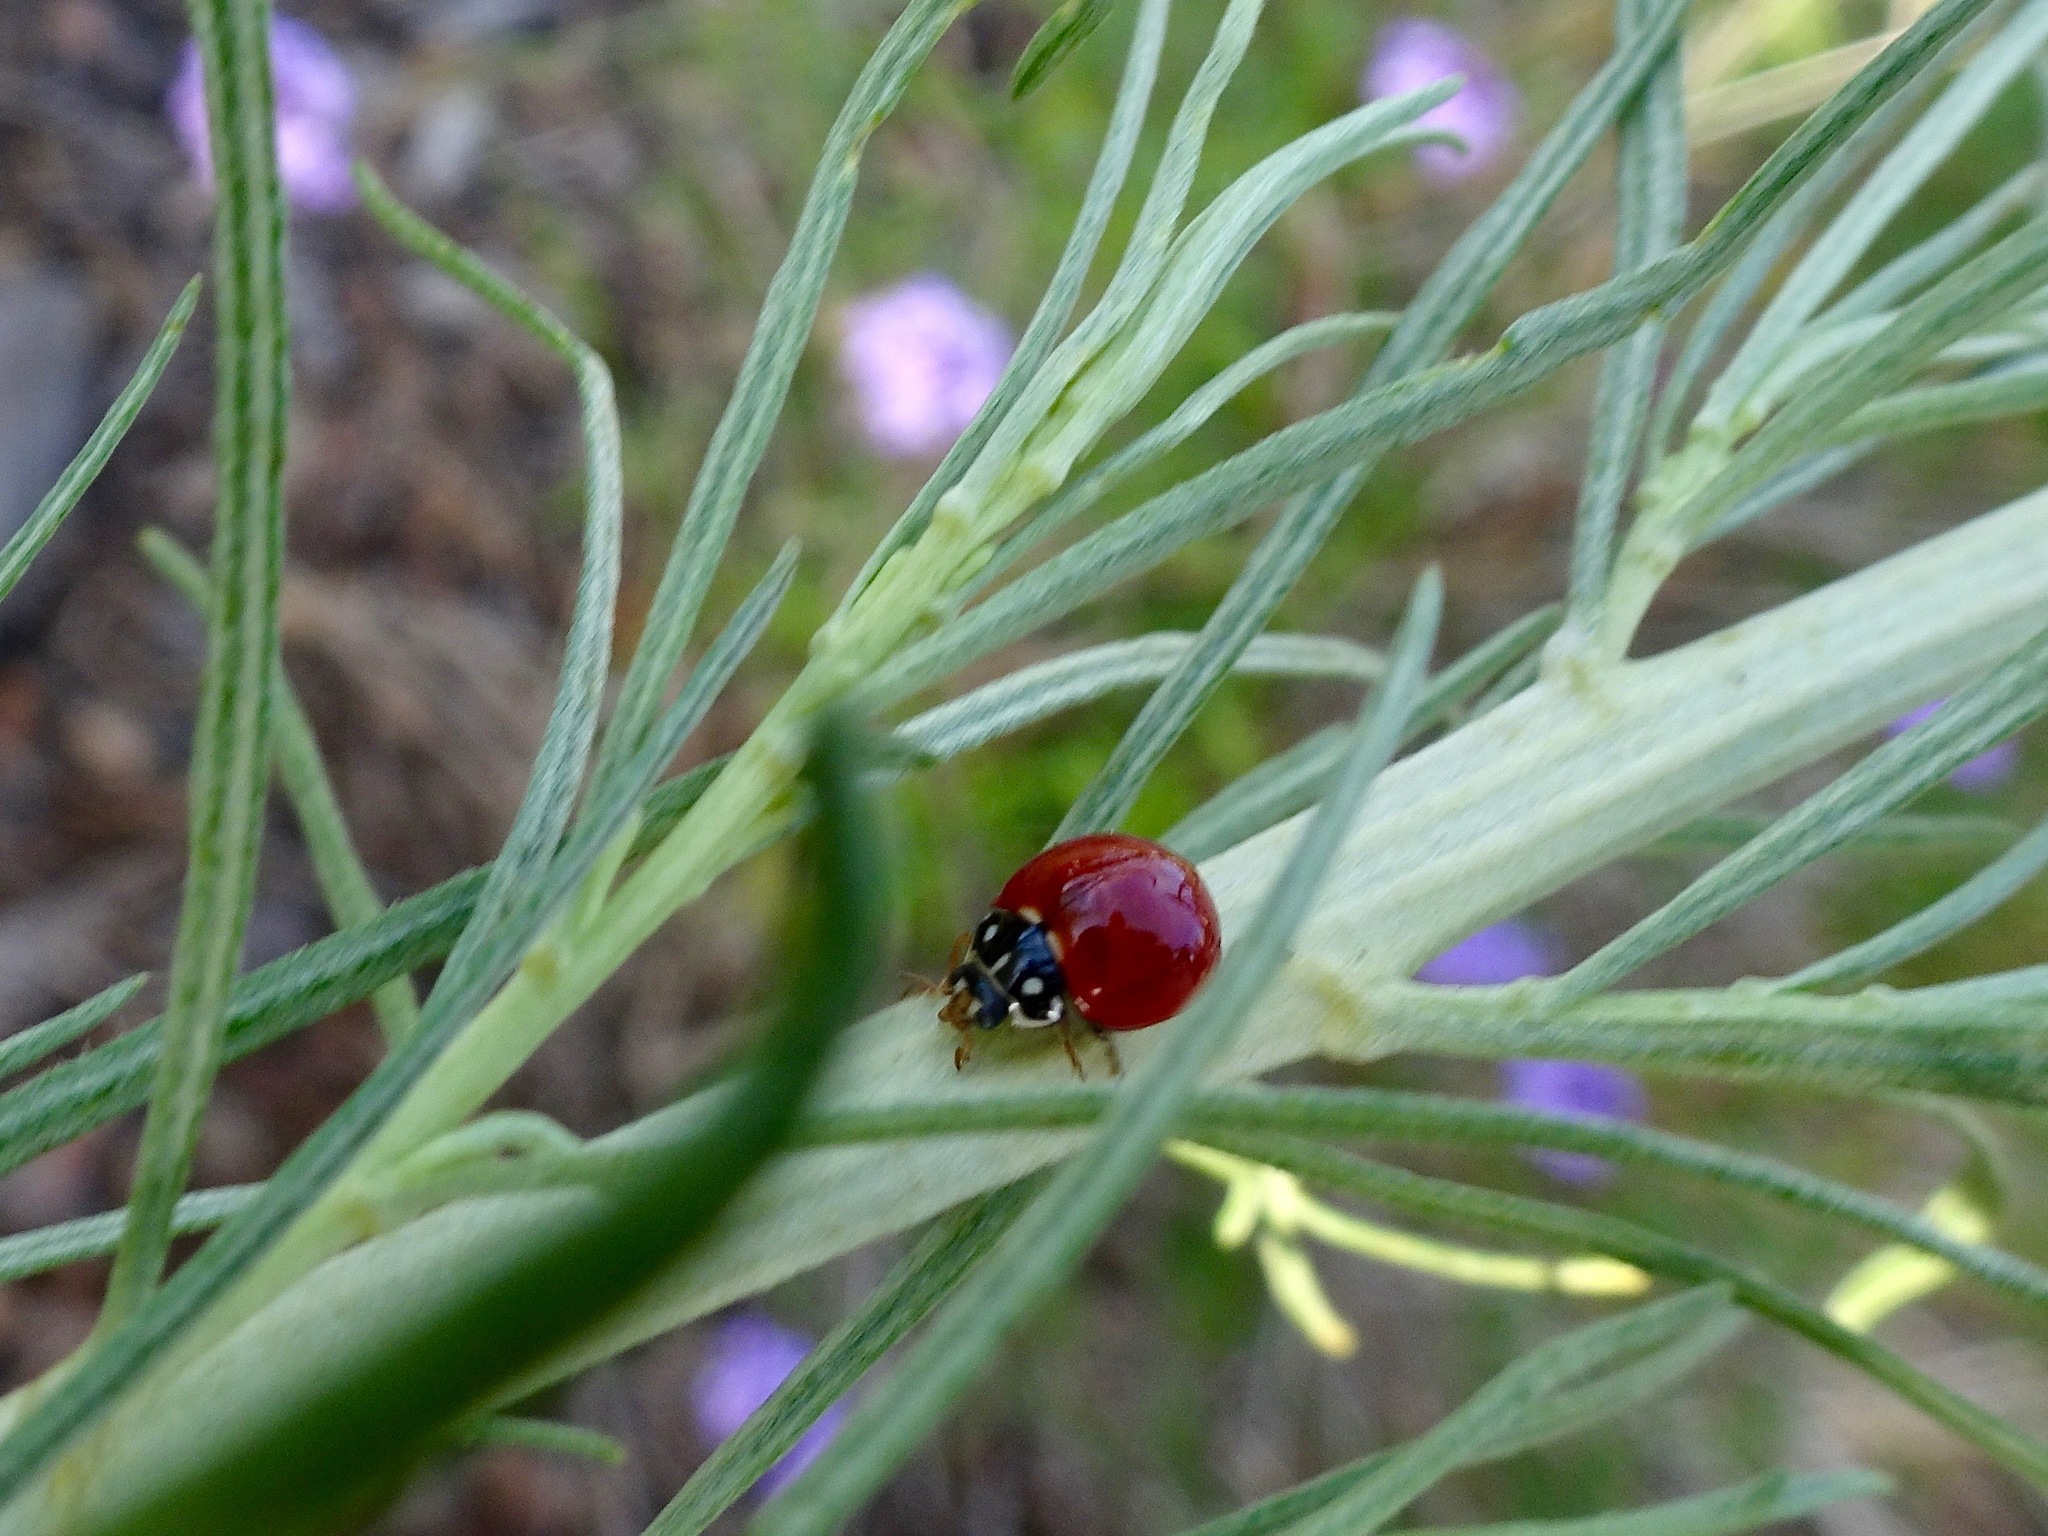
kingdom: Animalia
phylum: Arthropoda
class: Insecta
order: Coleoptera
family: Coccinellidae
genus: Cycloneda
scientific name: Cycloneda sanguinea
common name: Ladybird beetle
